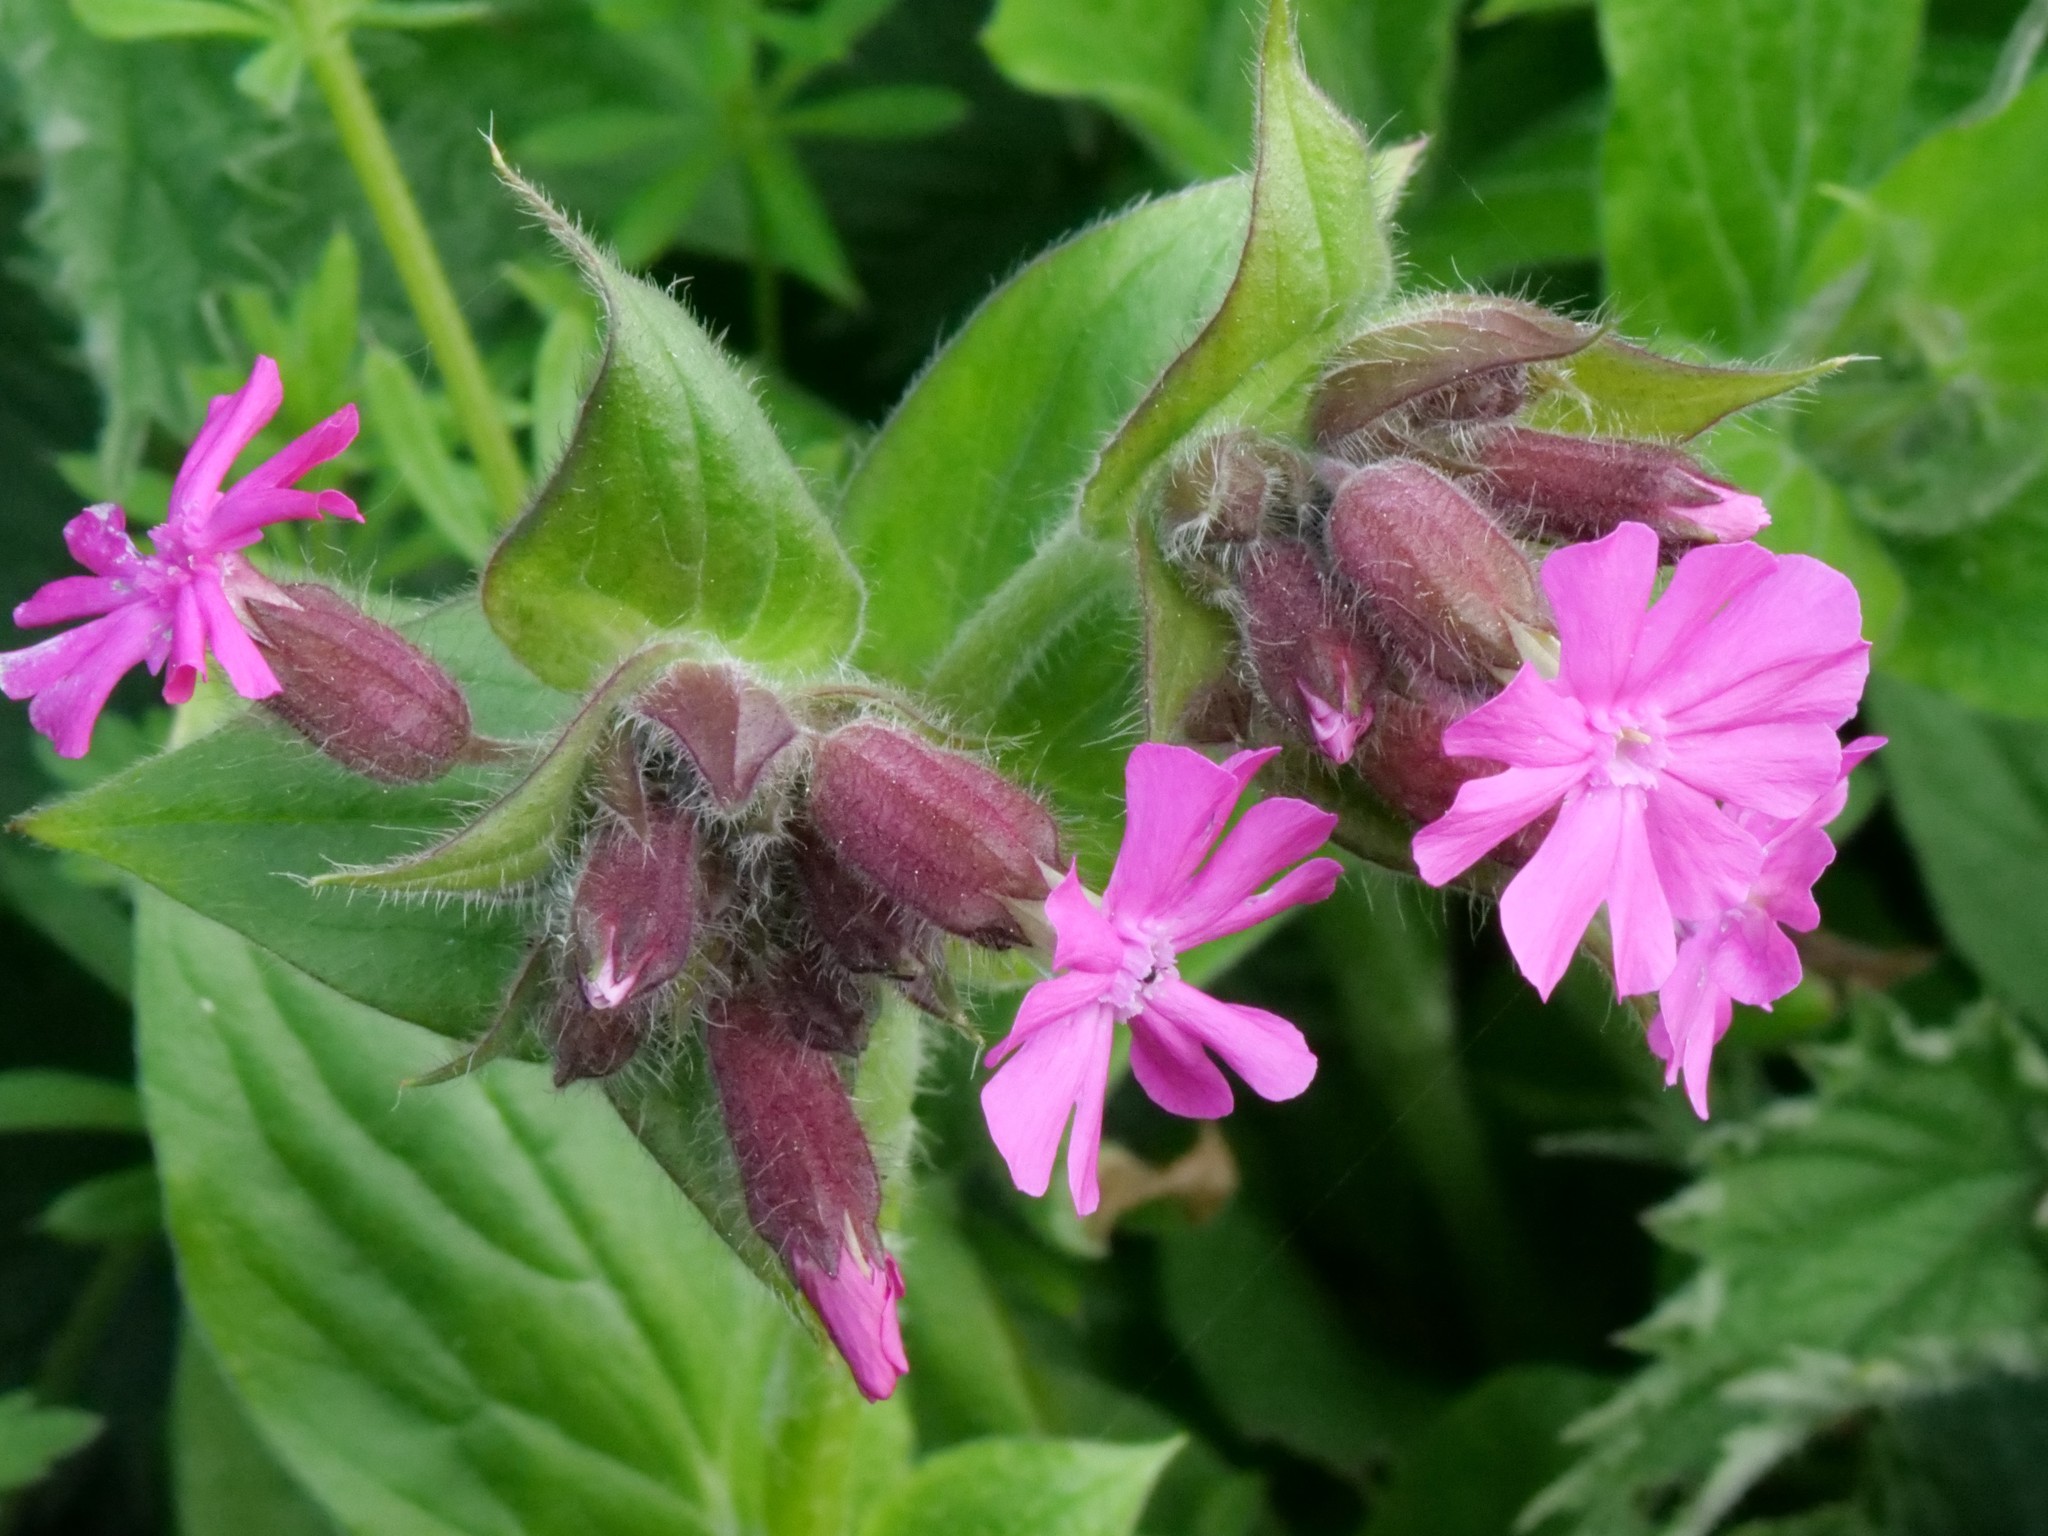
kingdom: Plantae
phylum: Tracheophyta
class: Magnoliopsida
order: Caryophyllales
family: Caryophyllaceae
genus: Silene
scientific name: Silene dioica
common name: Red campion
